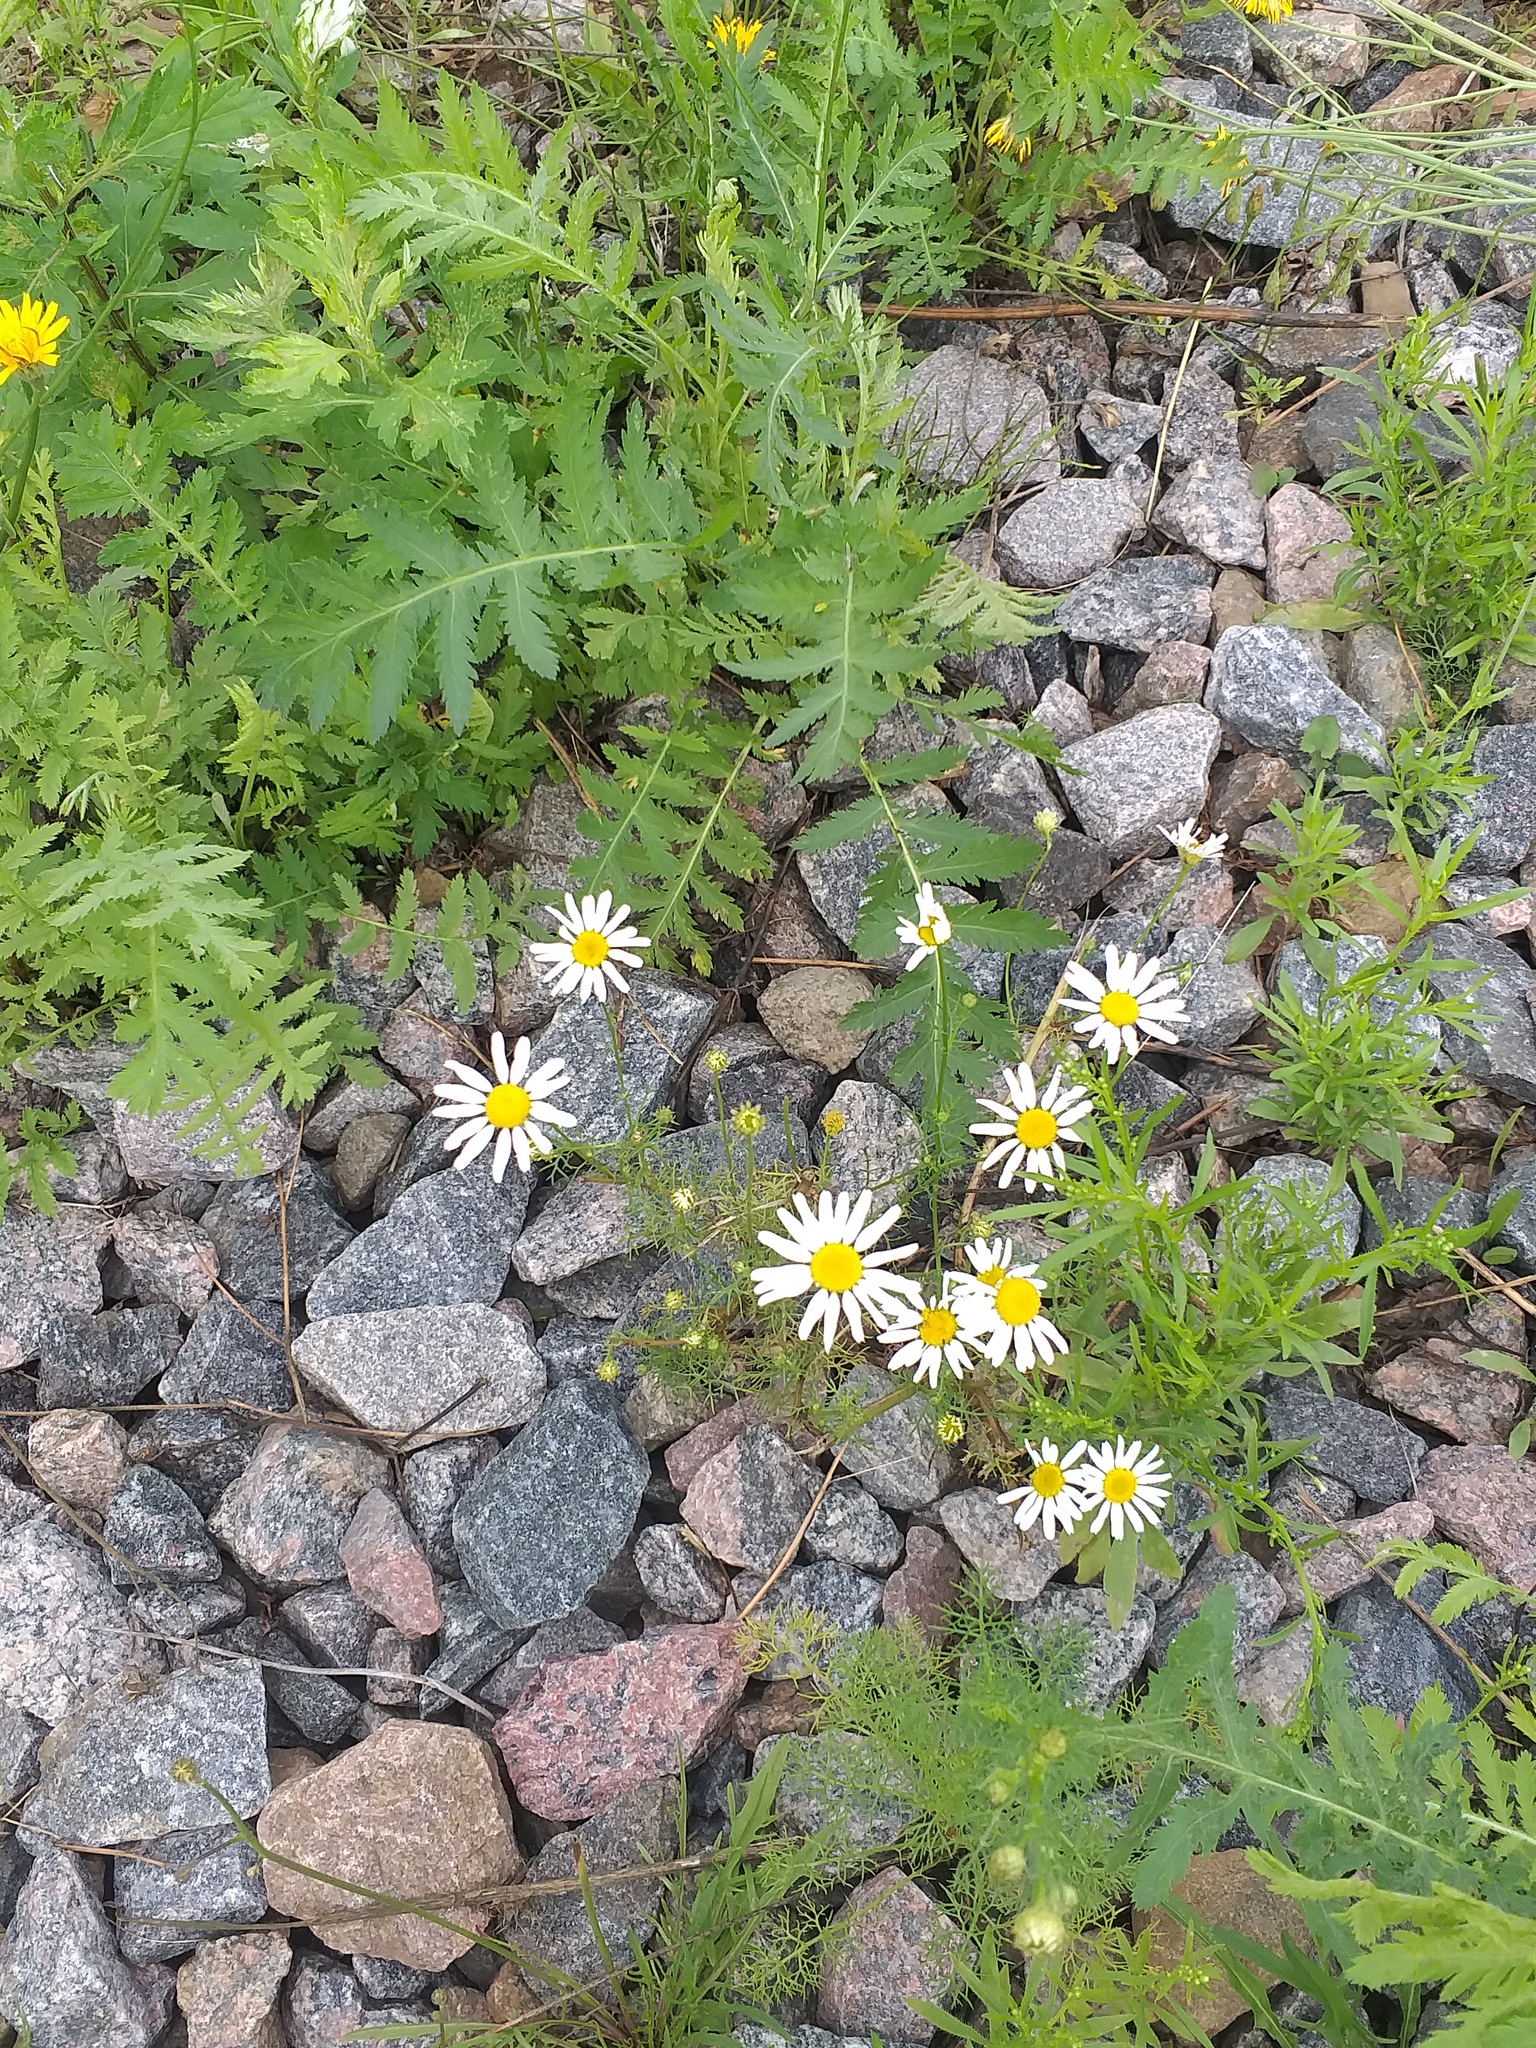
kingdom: Plantae
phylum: Tracheophyta
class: Magnoliopsida
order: Asterales
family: Asteraceae
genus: Tripleurospermum
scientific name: Tripleurospermum inodorum
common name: Scentless mayweed
